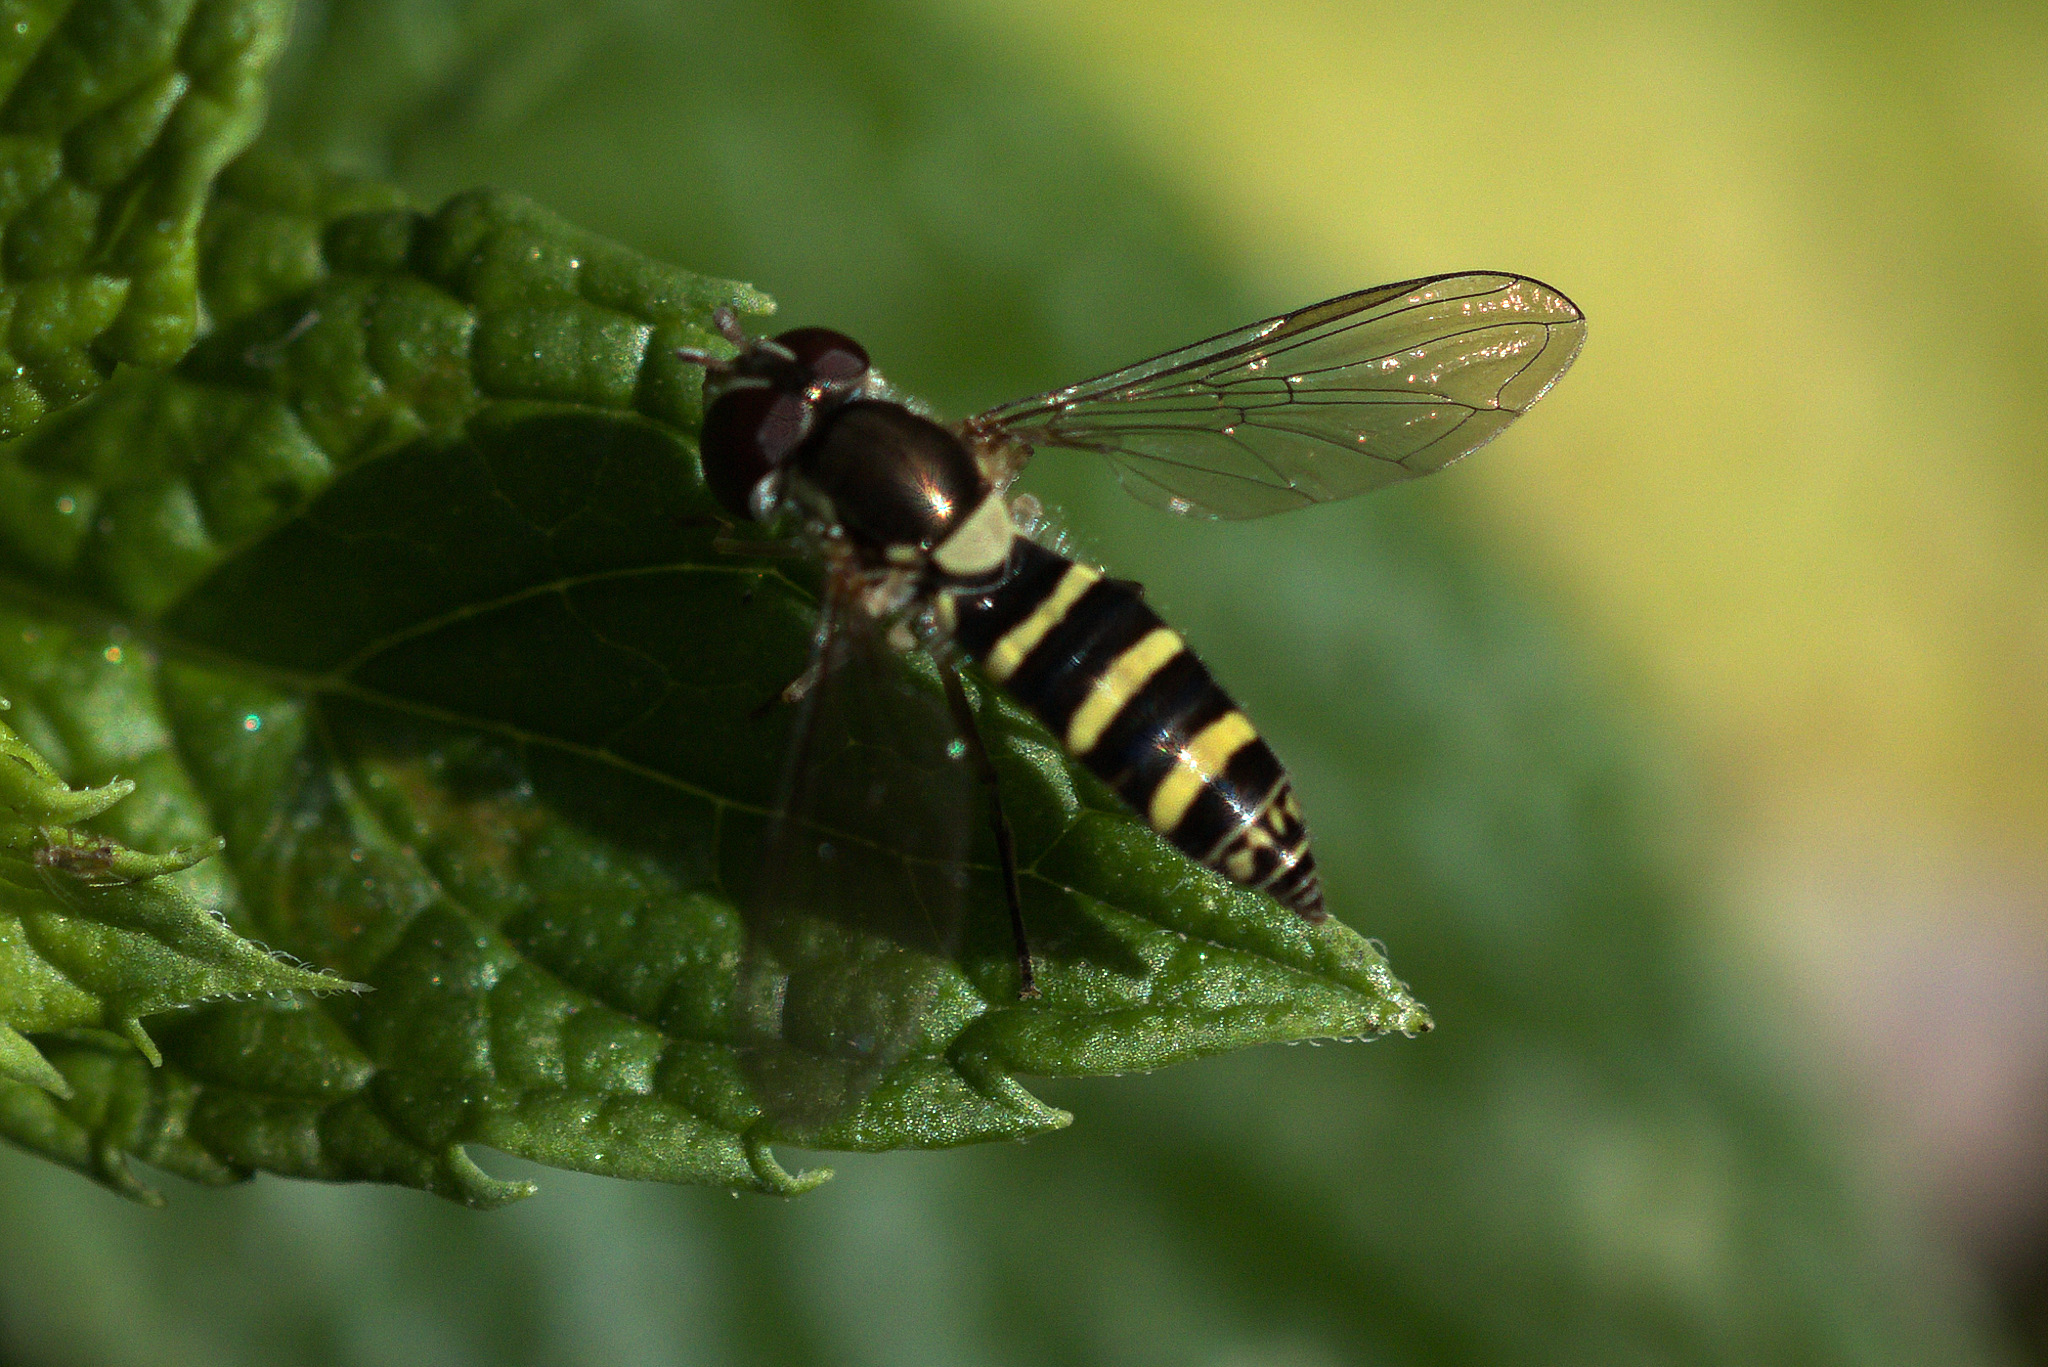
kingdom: Animalia
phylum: Arthropoda
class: Insecta
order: Diptera
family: Syrphidae
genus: Fazia
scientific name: Fazia micrura
